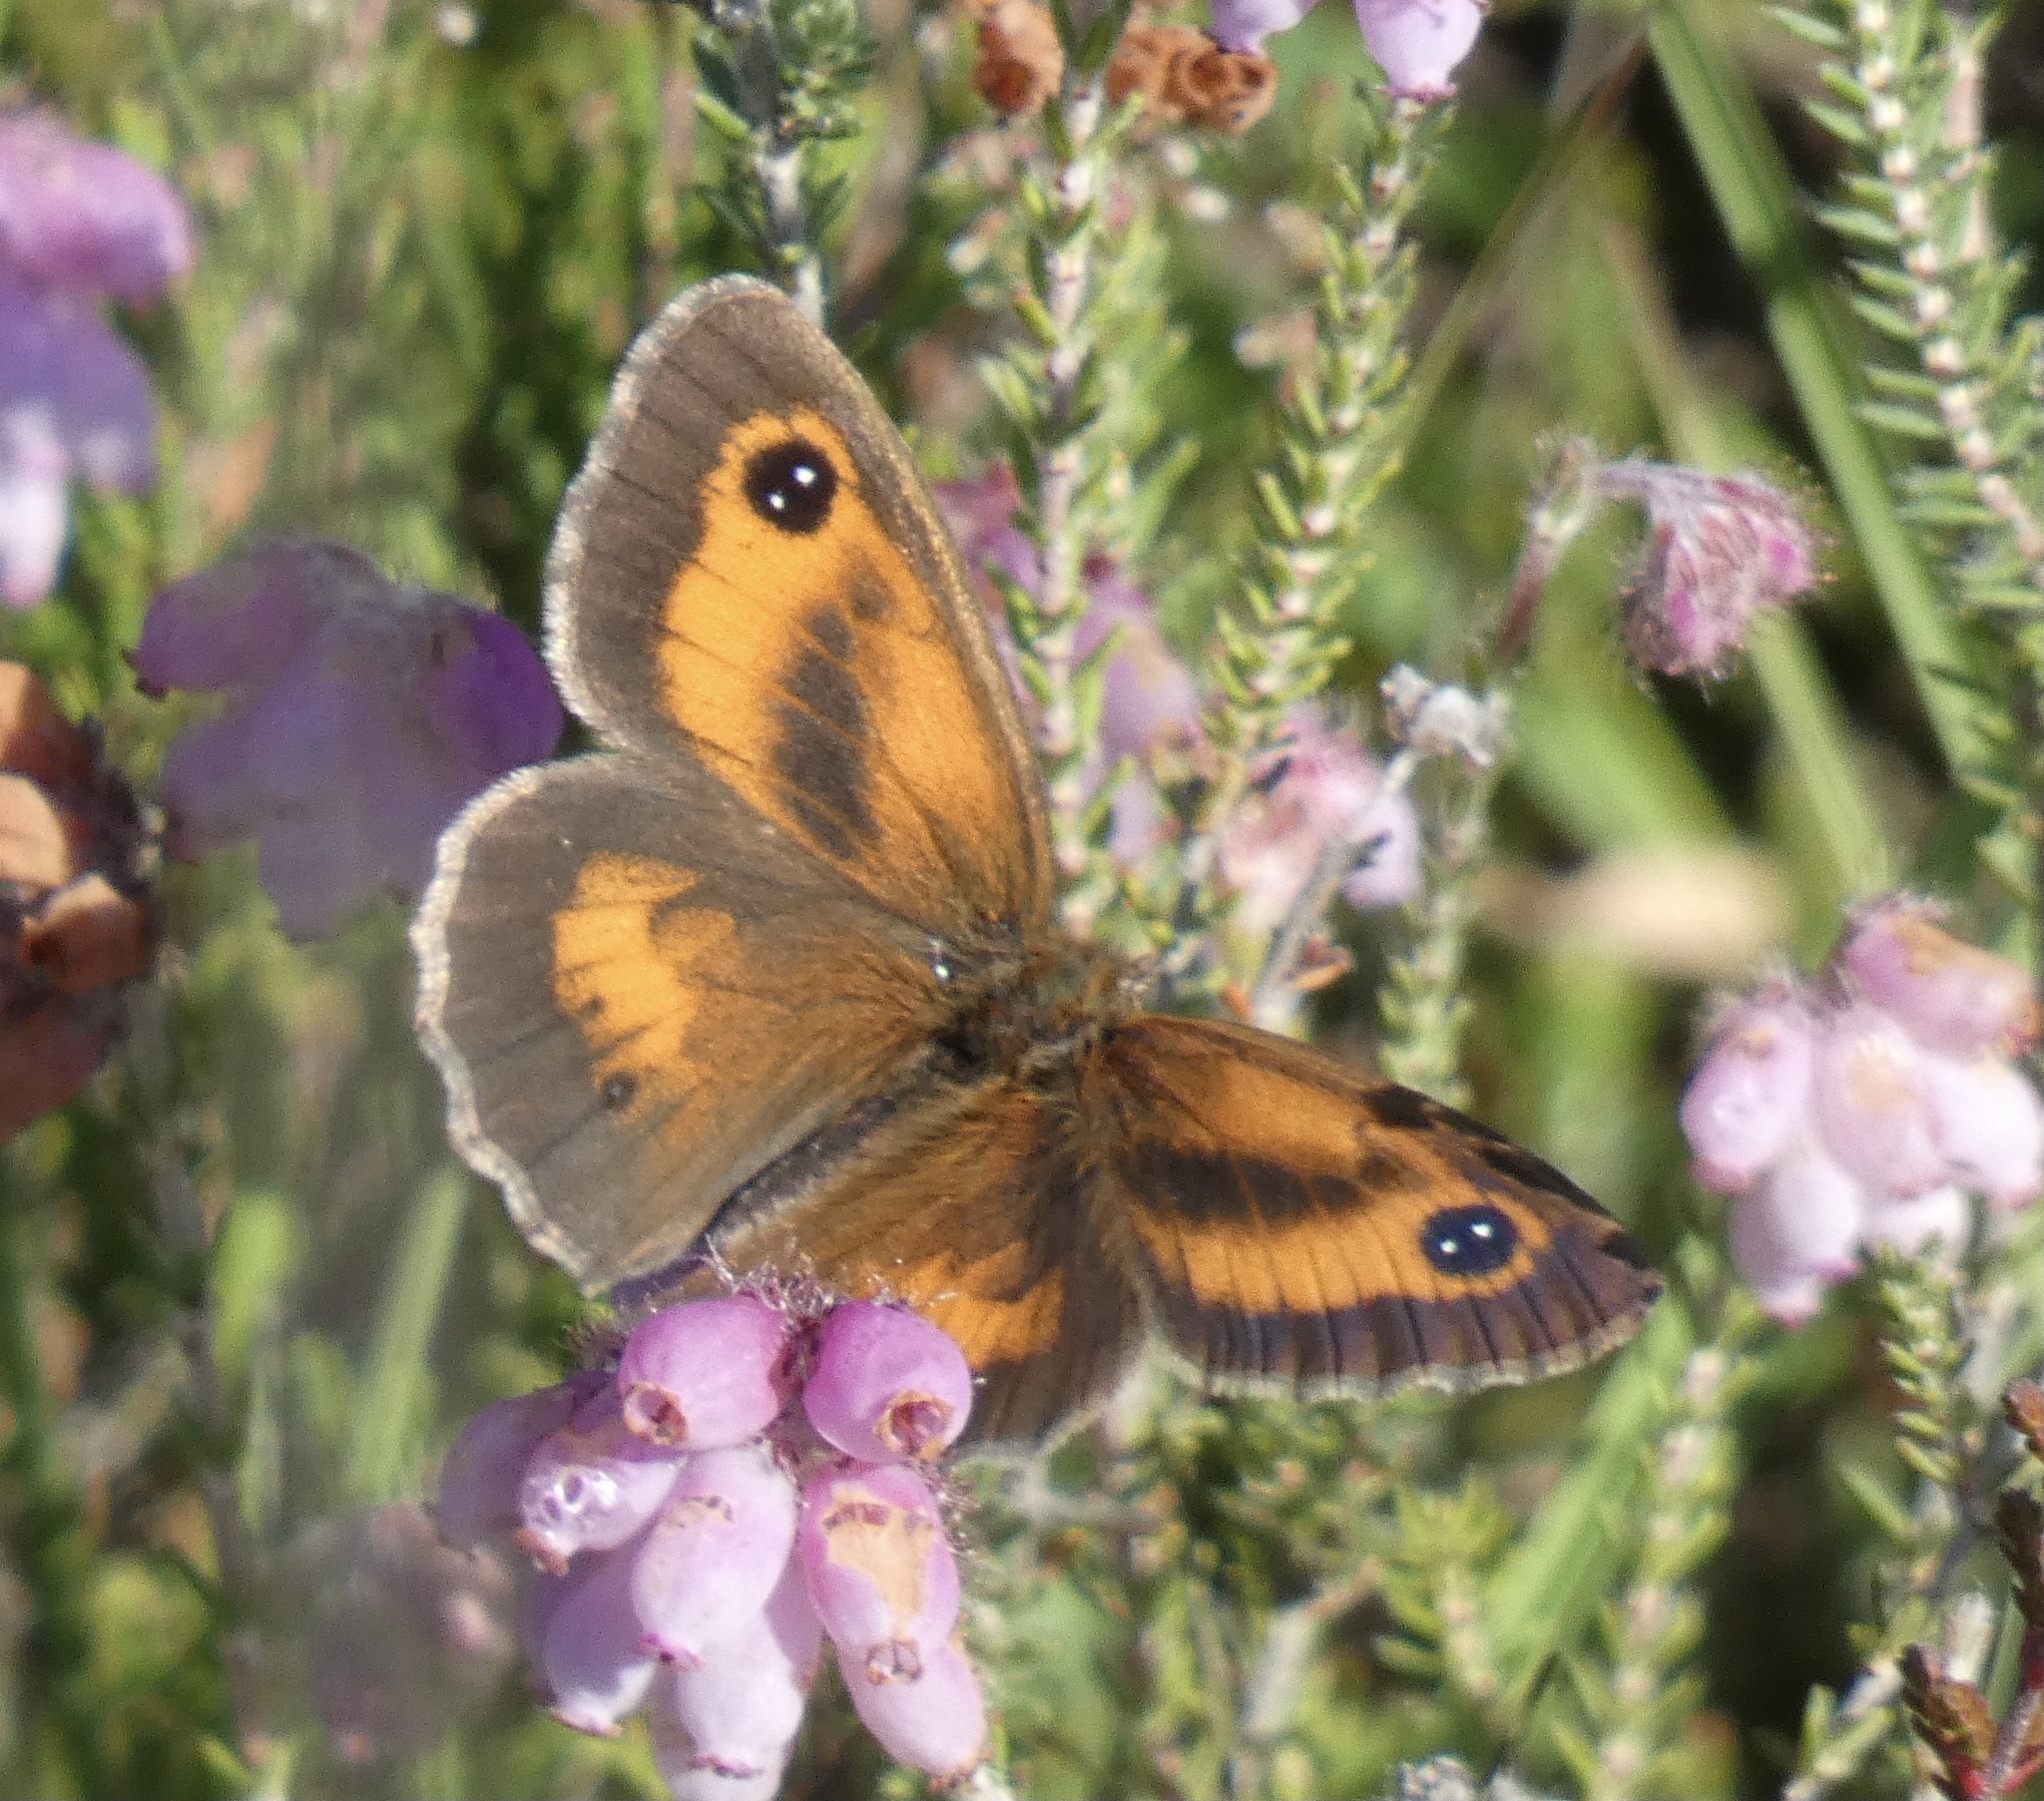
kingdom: Animalia
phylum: Arthropoda
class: Insecta
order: Lepidoptera
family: Nymphalidae
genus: Pyronia
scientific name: Pyronia tithonus
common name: Gatekeeper
